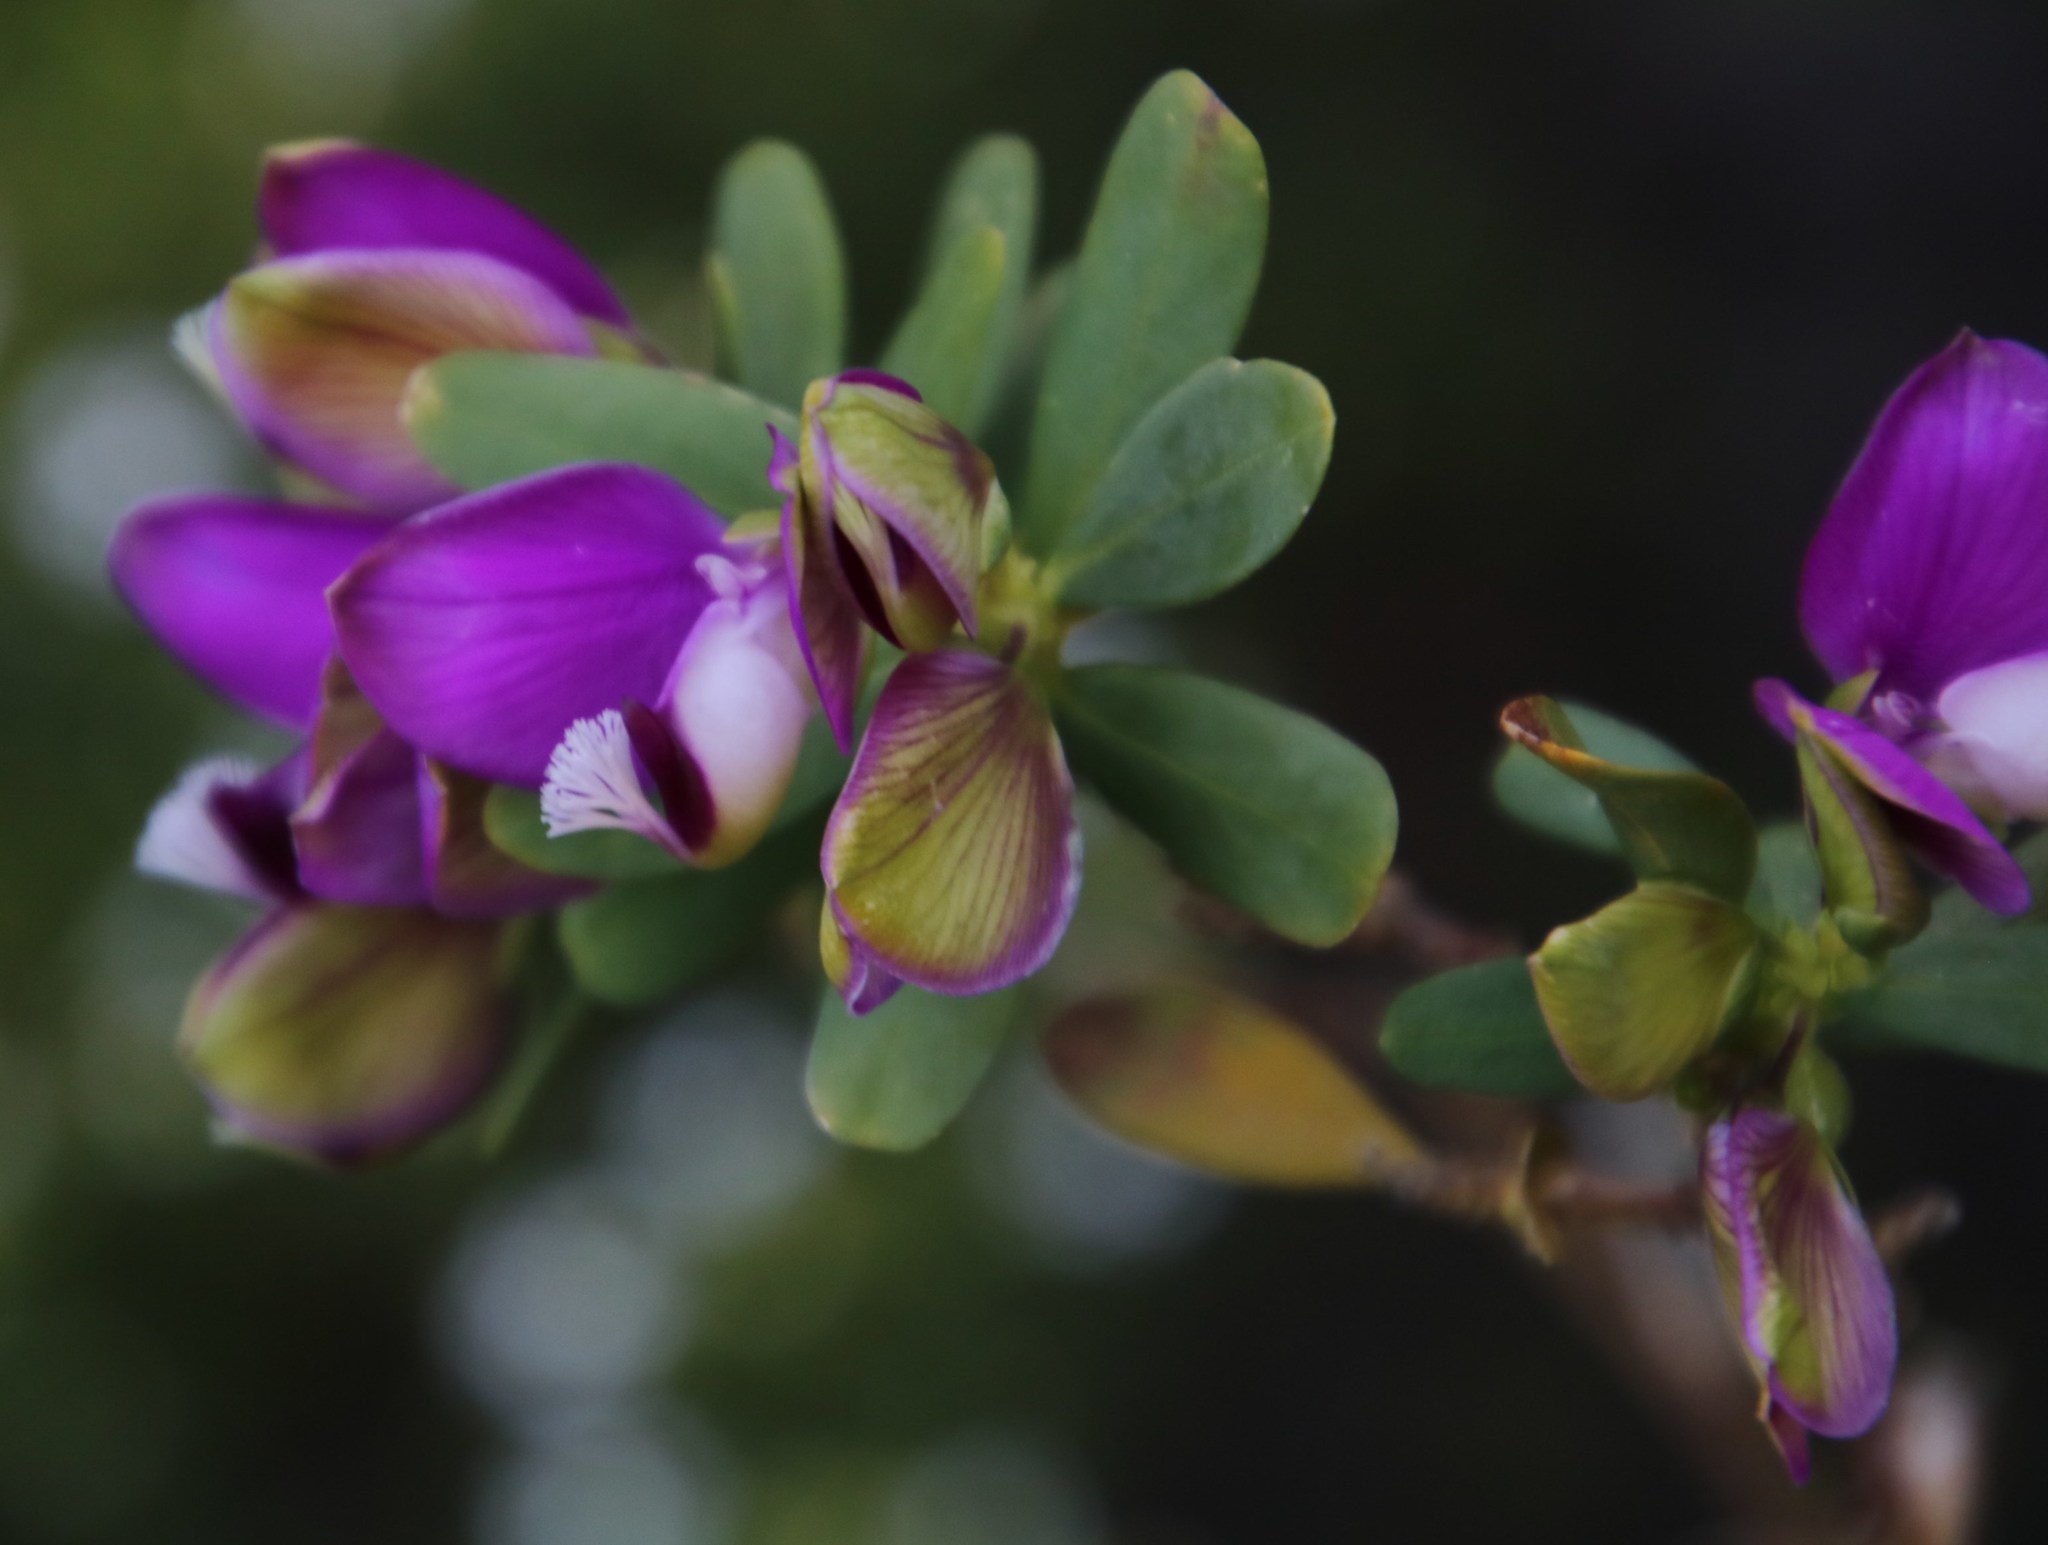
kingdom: Plantae
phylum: Tracheophyta
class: Magnoliopsida
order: Fabales
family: Polygalaceae
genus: Polygala
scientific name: Polygala myrtifolia
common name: Myrtle-leaf milkwort
